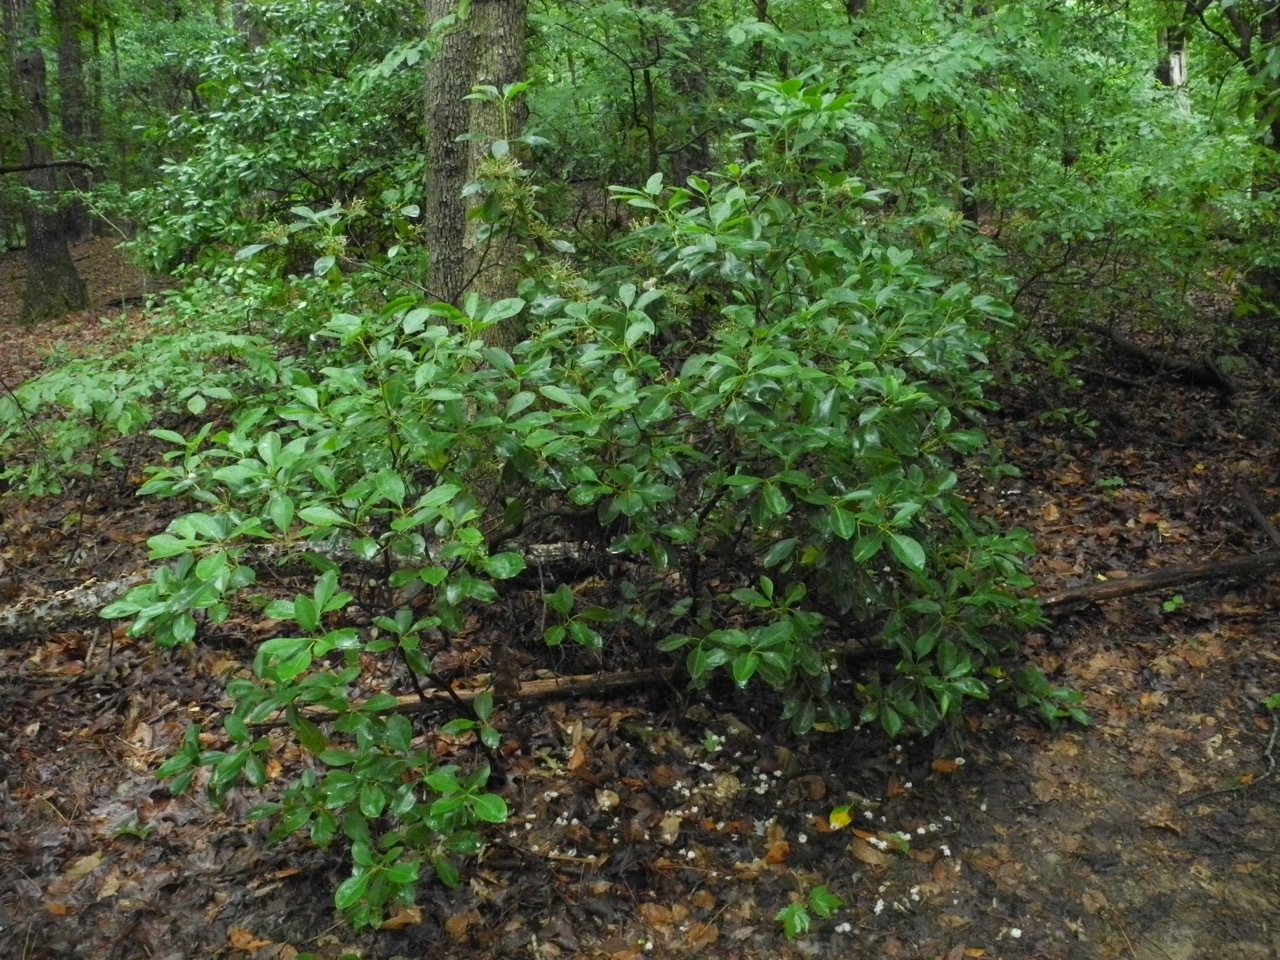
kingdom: Plantae
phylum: Tracheophyta
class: Magnoliopsida
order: Ericales
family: Ericaceae
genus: Kalmia
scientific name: Kalmia latifolia
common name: Mountain-laurel
